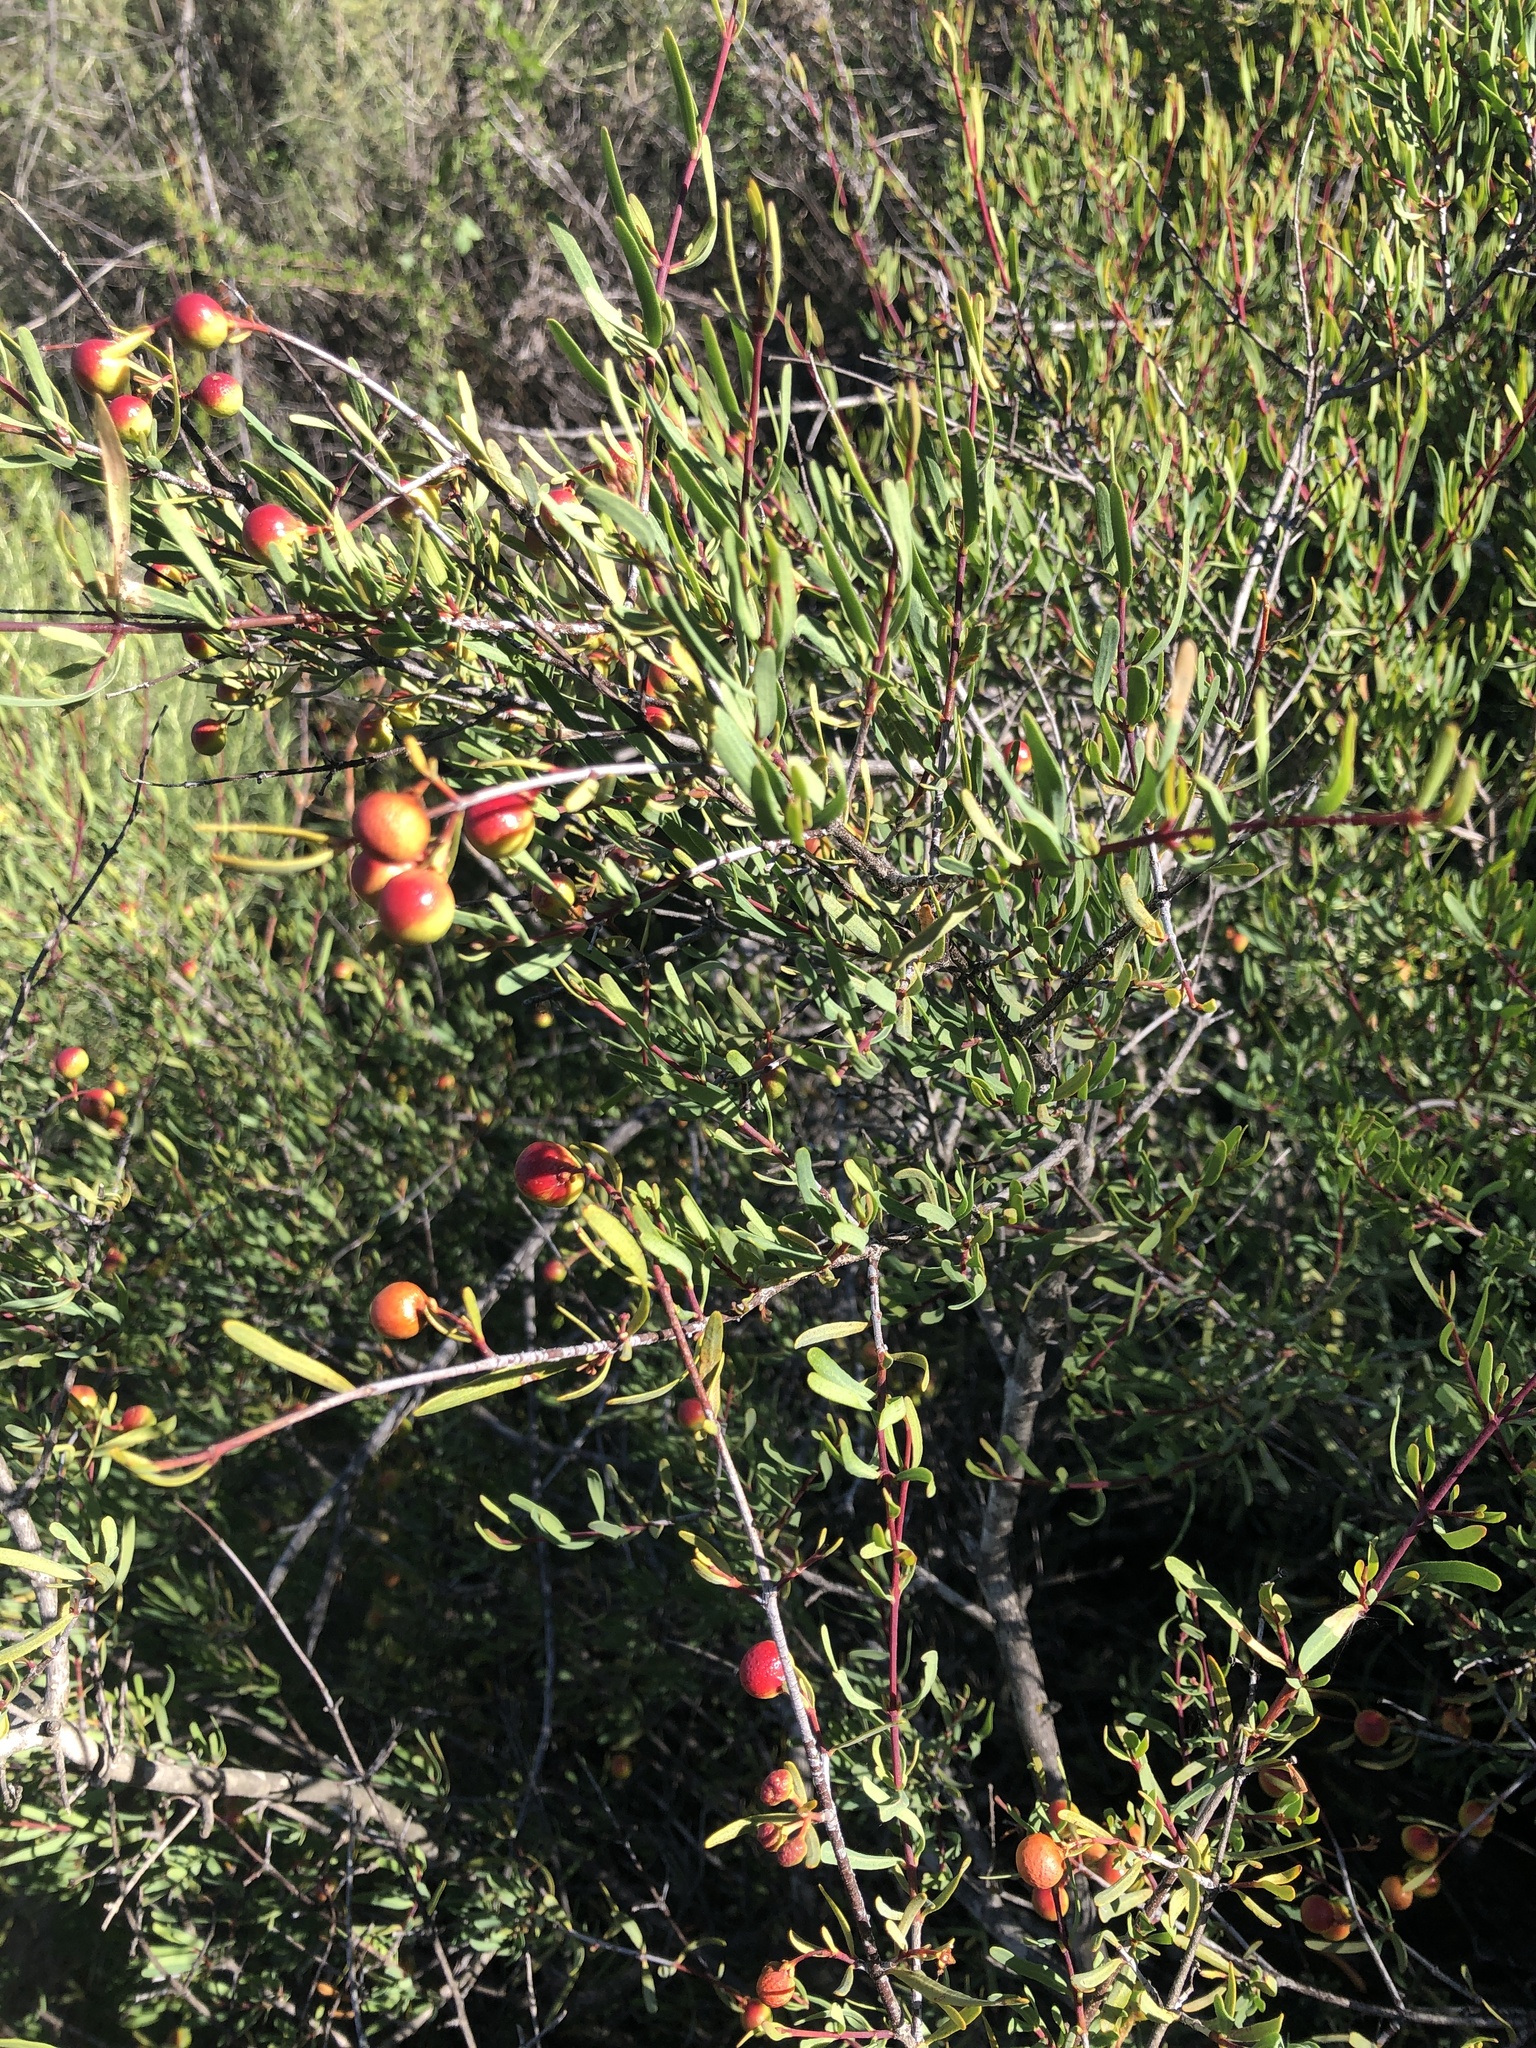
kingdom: Plantae
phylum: Tracheophyta
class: Magnoliopsida
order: Sapindales
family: Rutaceae
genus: Cneoridium
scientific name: Cneoridium dumosum
